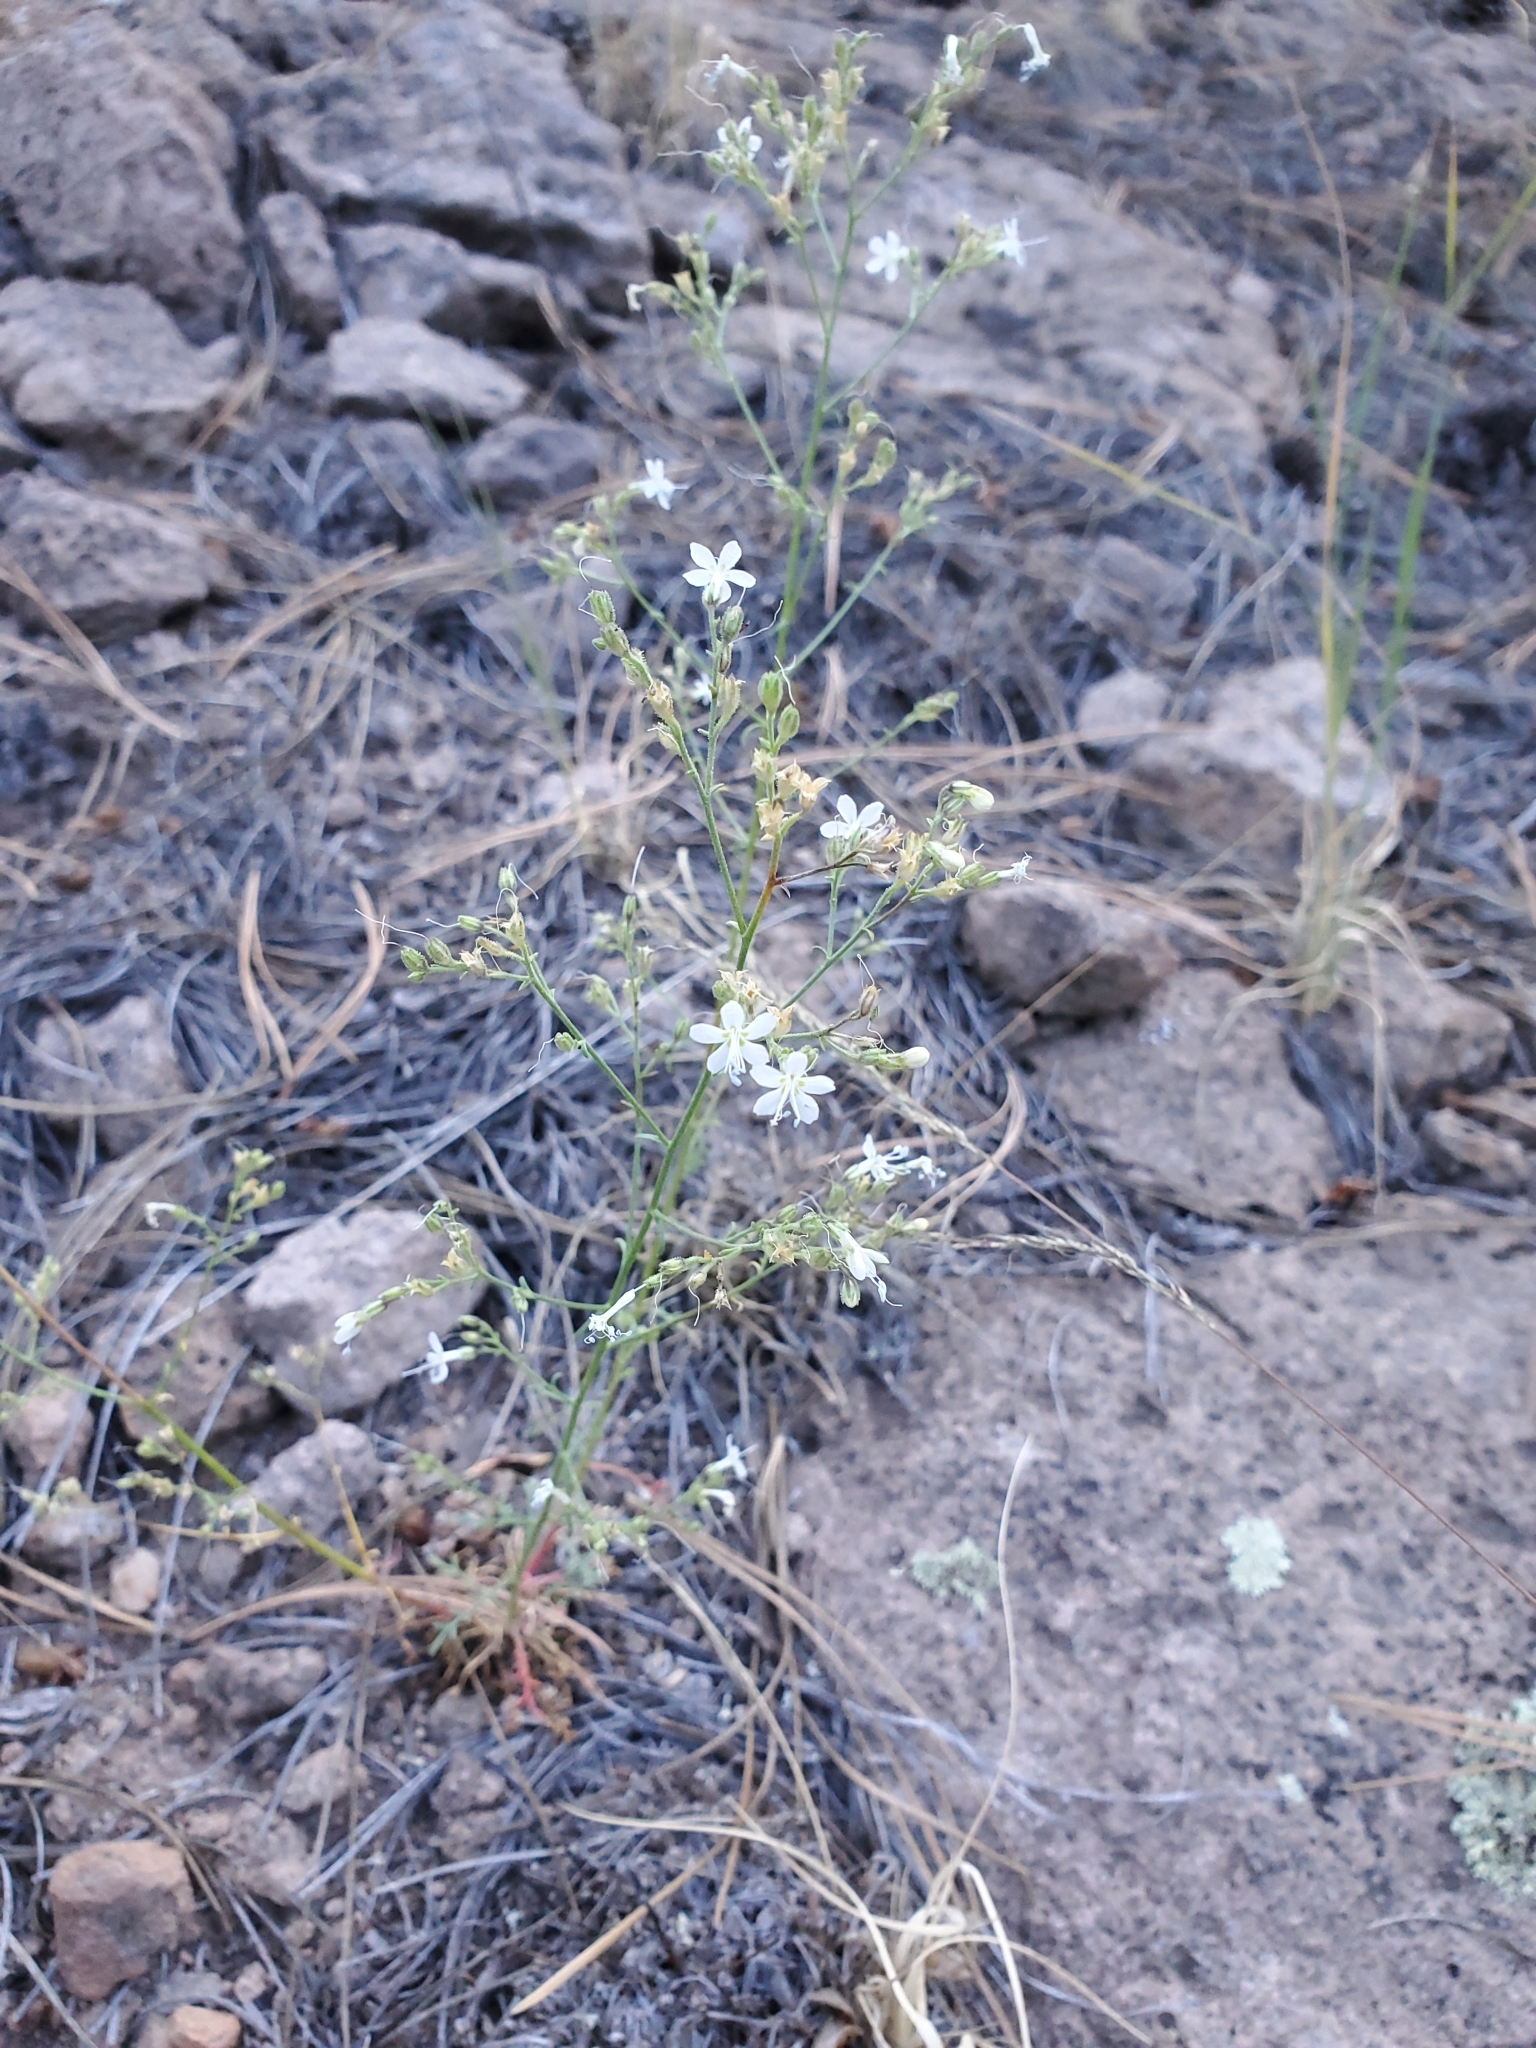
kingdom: Plantae
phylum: Tracheophyta
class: Magnoliopsida
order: Ericales
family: Polemoniaceae
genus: Aliciella
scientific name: Aliciella pinnatifida
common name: Sticky gilia
